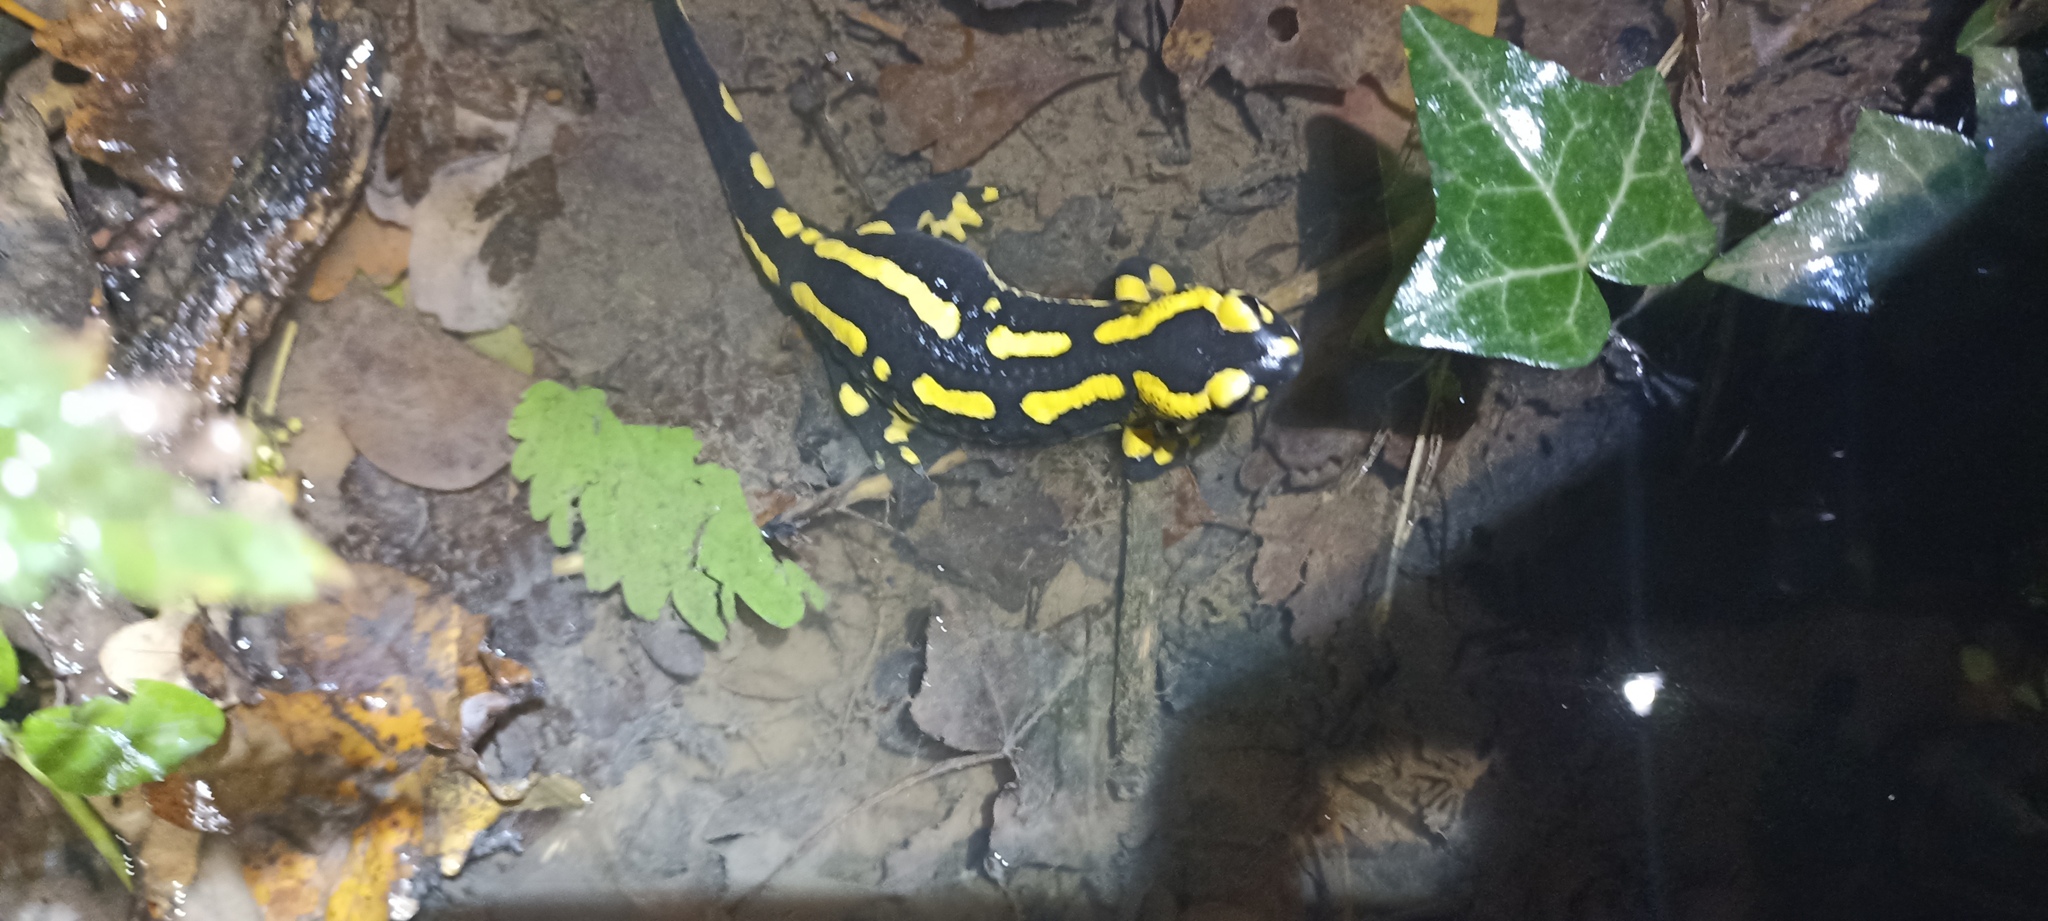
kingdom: Animalia
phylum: Chordata
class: Amphibia
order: Caudata
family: Salamandridae
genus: Salamandra
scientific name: Salamandra salamandra
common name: Fire salamander
